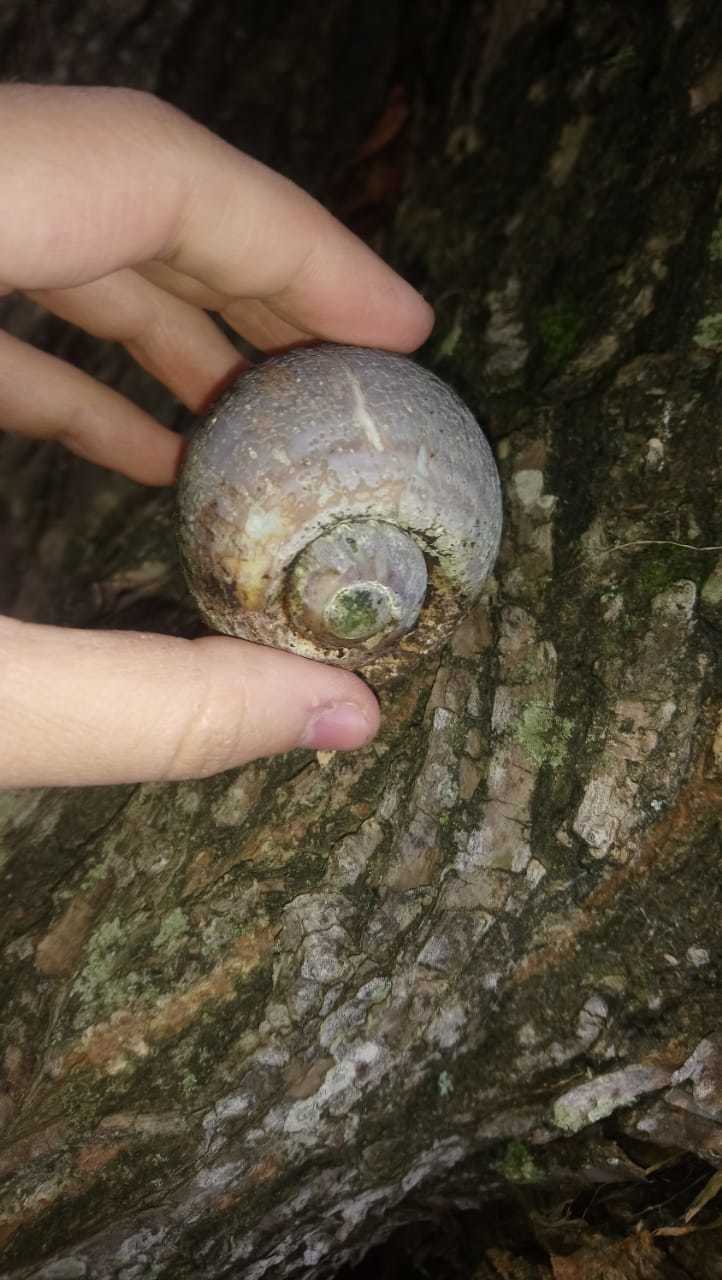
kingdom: Animalia
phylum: Mollusca
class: Gastropoda
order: Architaenioglossa
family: Ampullariidae
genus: Pomacea
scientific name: Pomacea canaliculata
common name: Channeled applesnail
